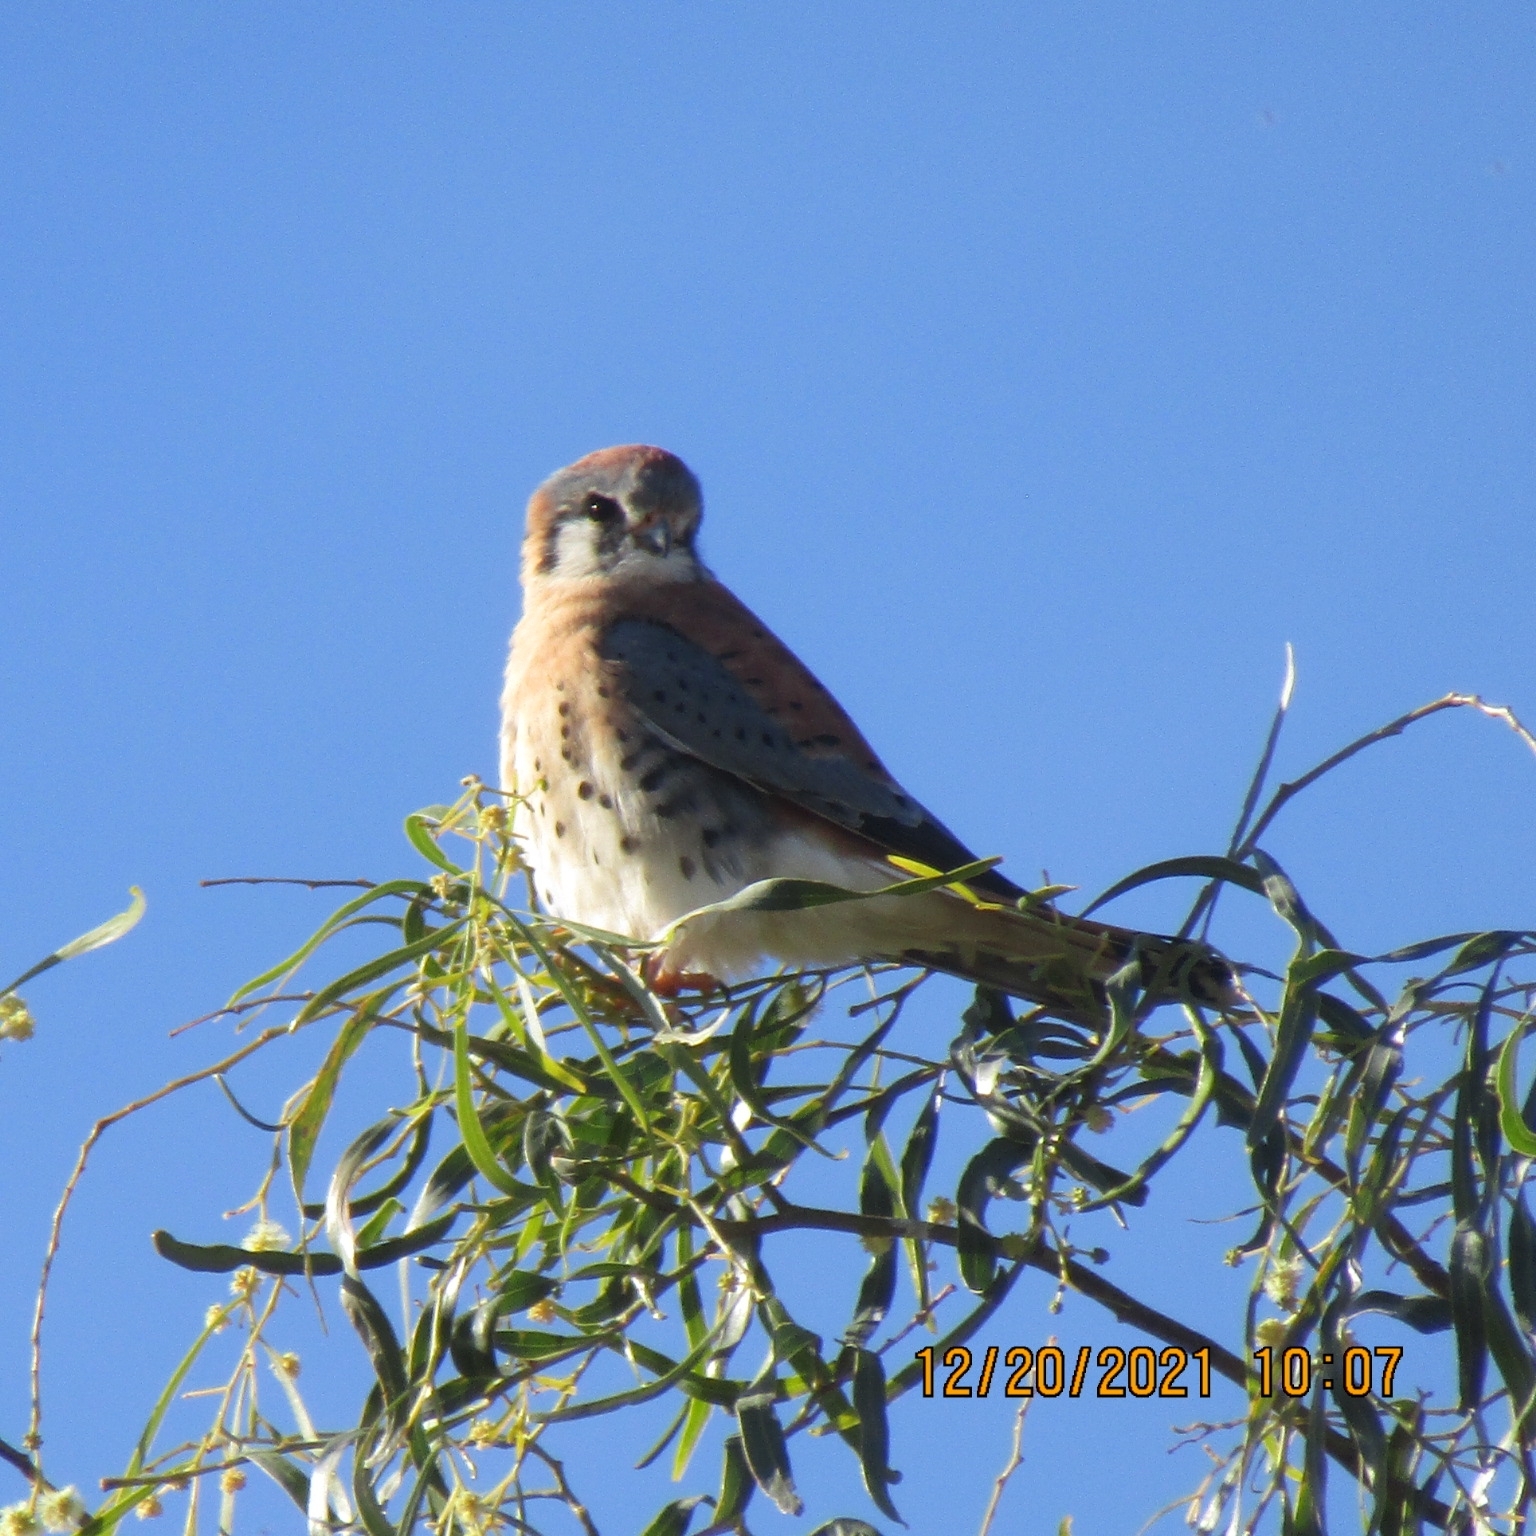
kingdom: Animalia
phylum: Chordata
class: Aves
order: Falconiformes
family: Falconidae
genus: Falco
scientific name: Falco sparverius
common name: American kestrel
